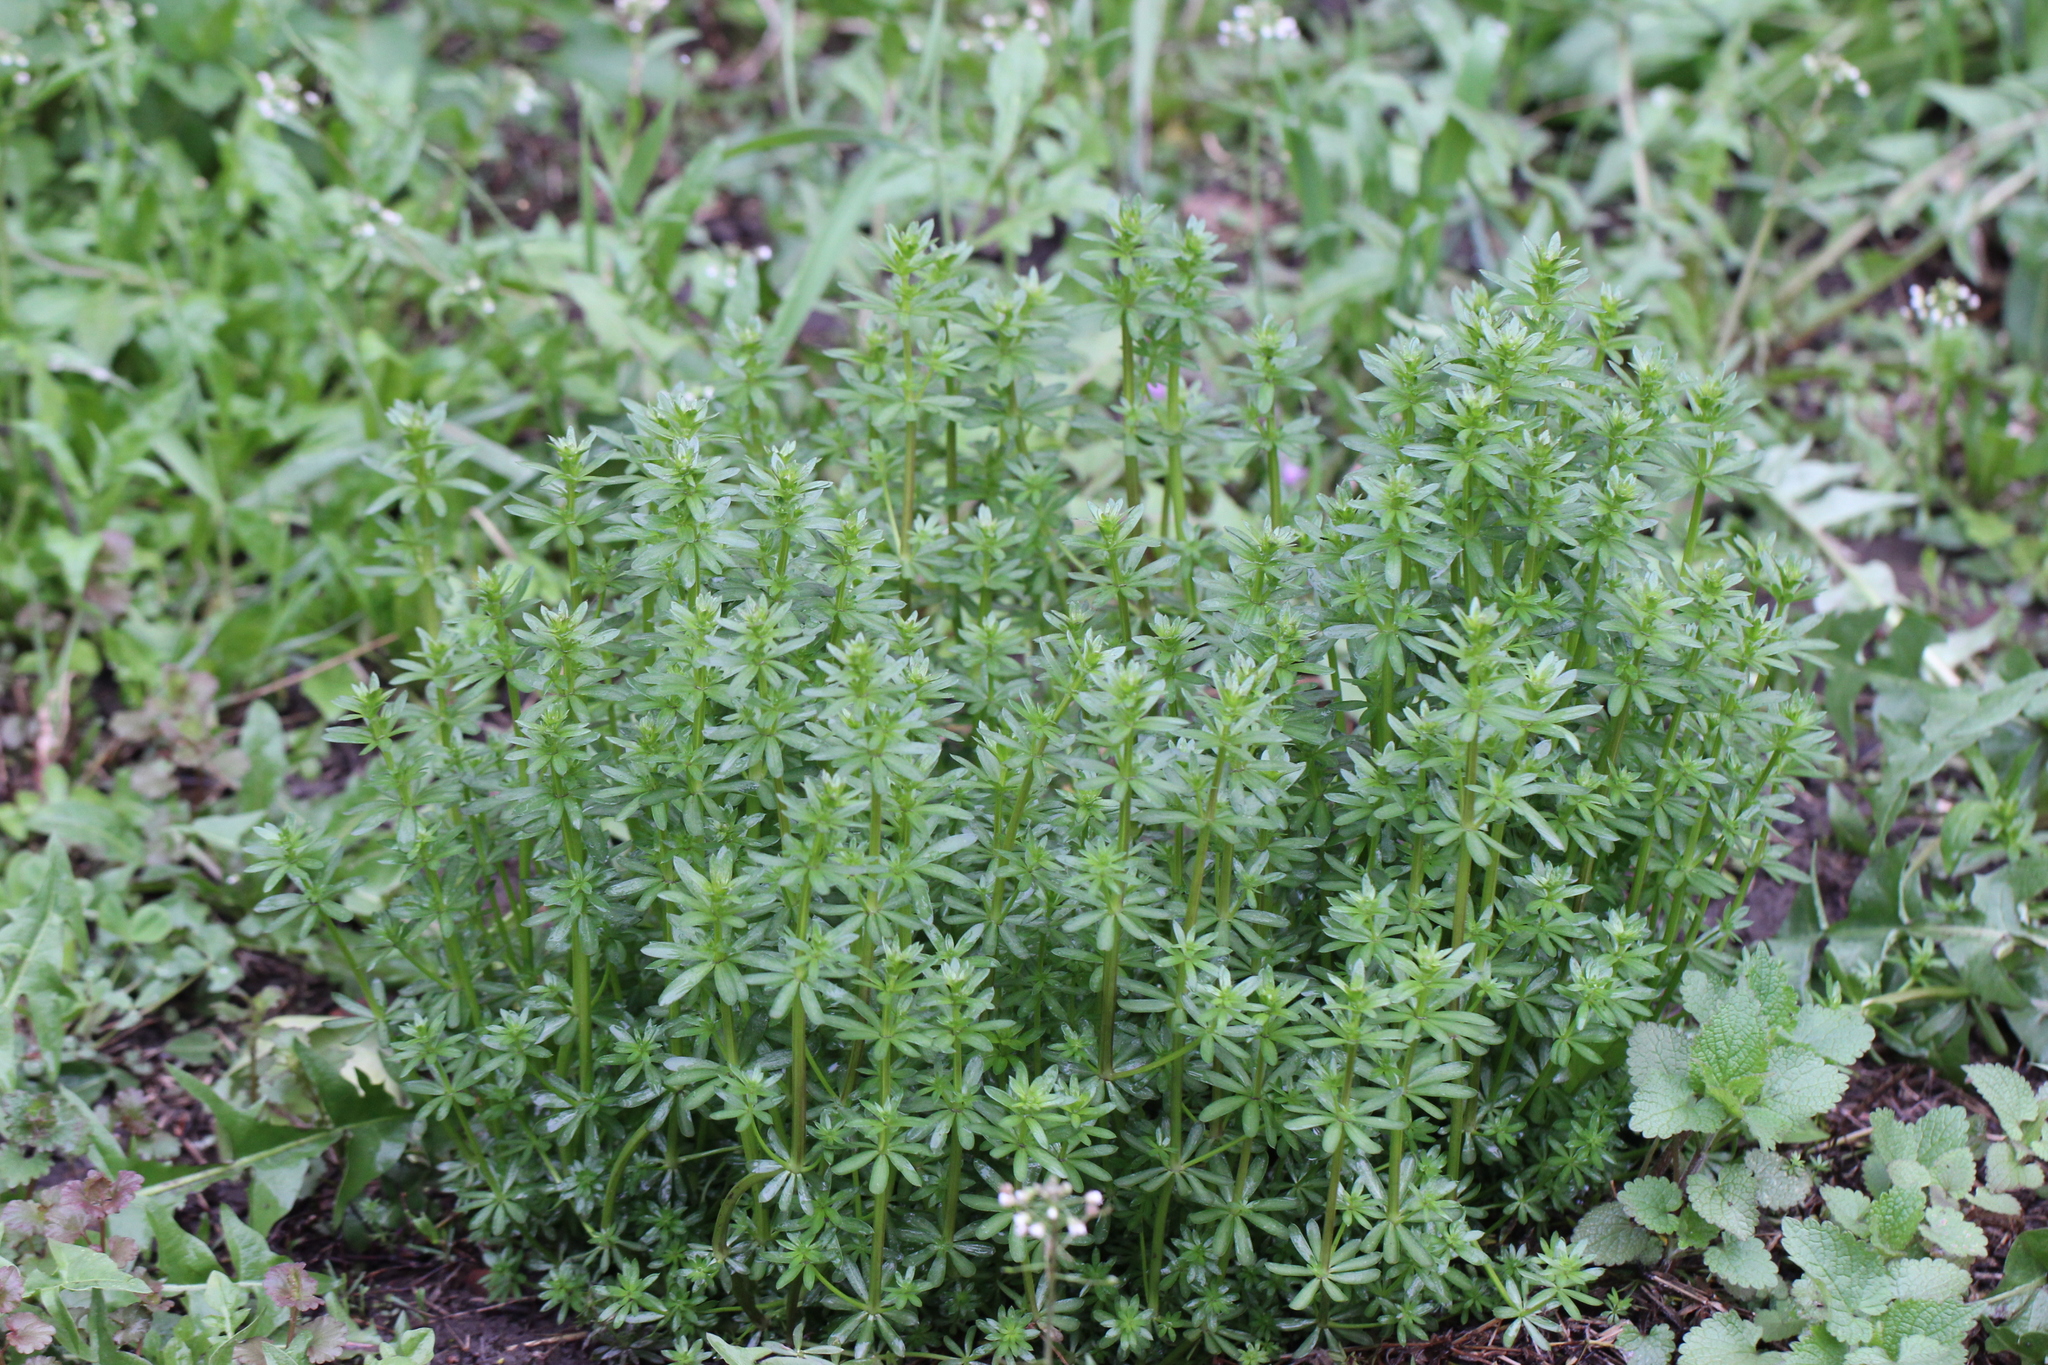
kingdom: Plantae
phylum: Tracheophyta
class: Magnoliopsida
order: Gentianales
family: Rubiaceae
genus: Galium
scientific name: Galium mollugo
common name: Hedge bedstraw
